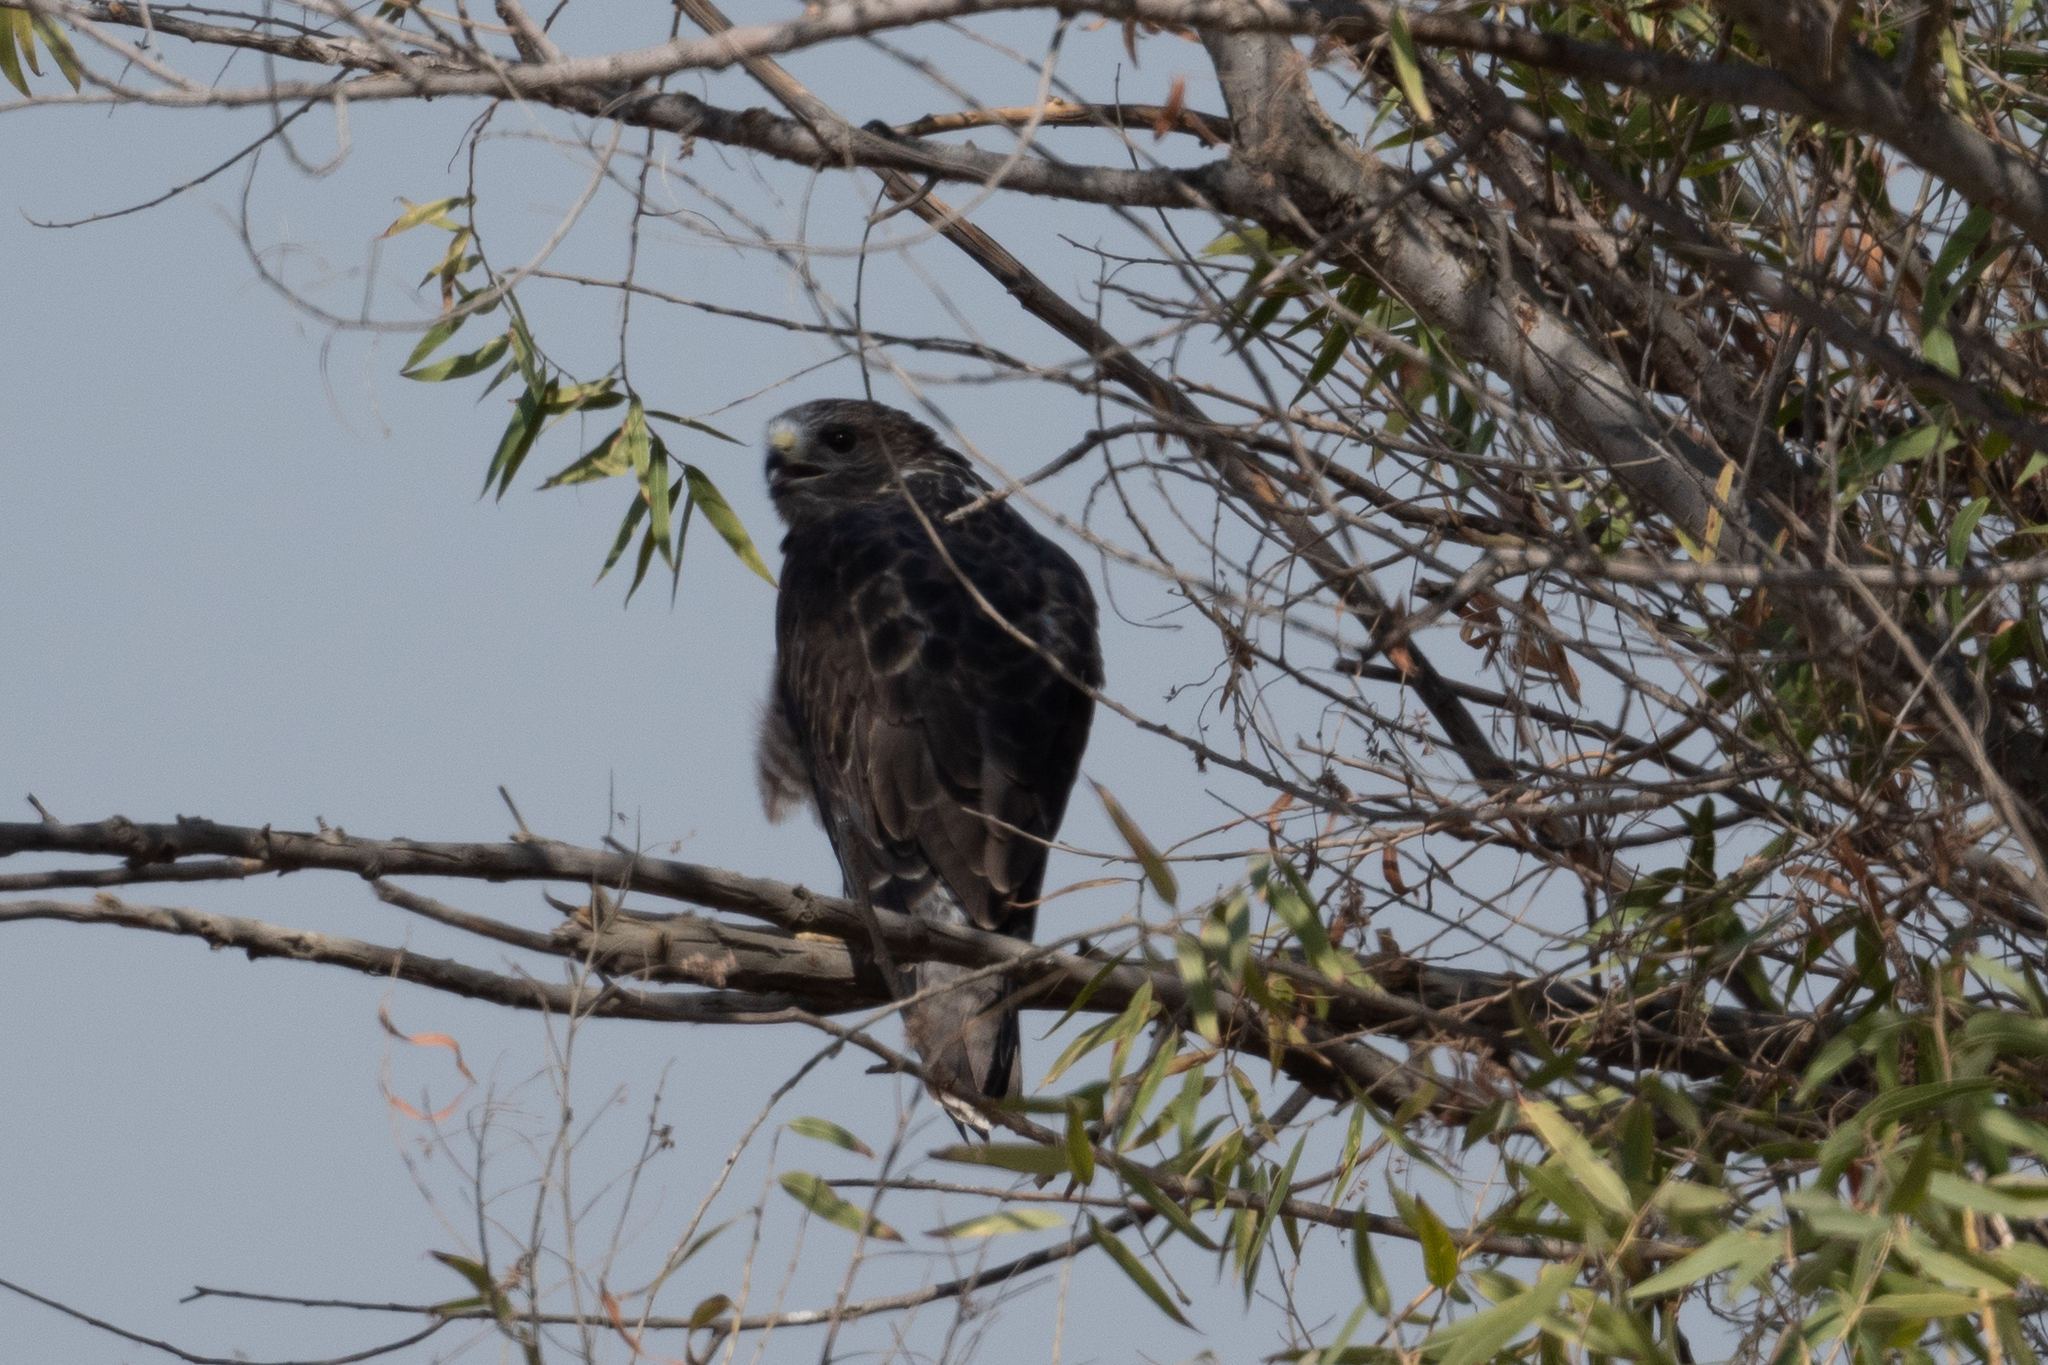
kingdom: Animalia
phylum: Chordata
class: Aves
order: Accipitriformes
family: Accipitridae
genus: Buteo
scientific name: Buteo swainsoni
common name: Swainson's hawk
